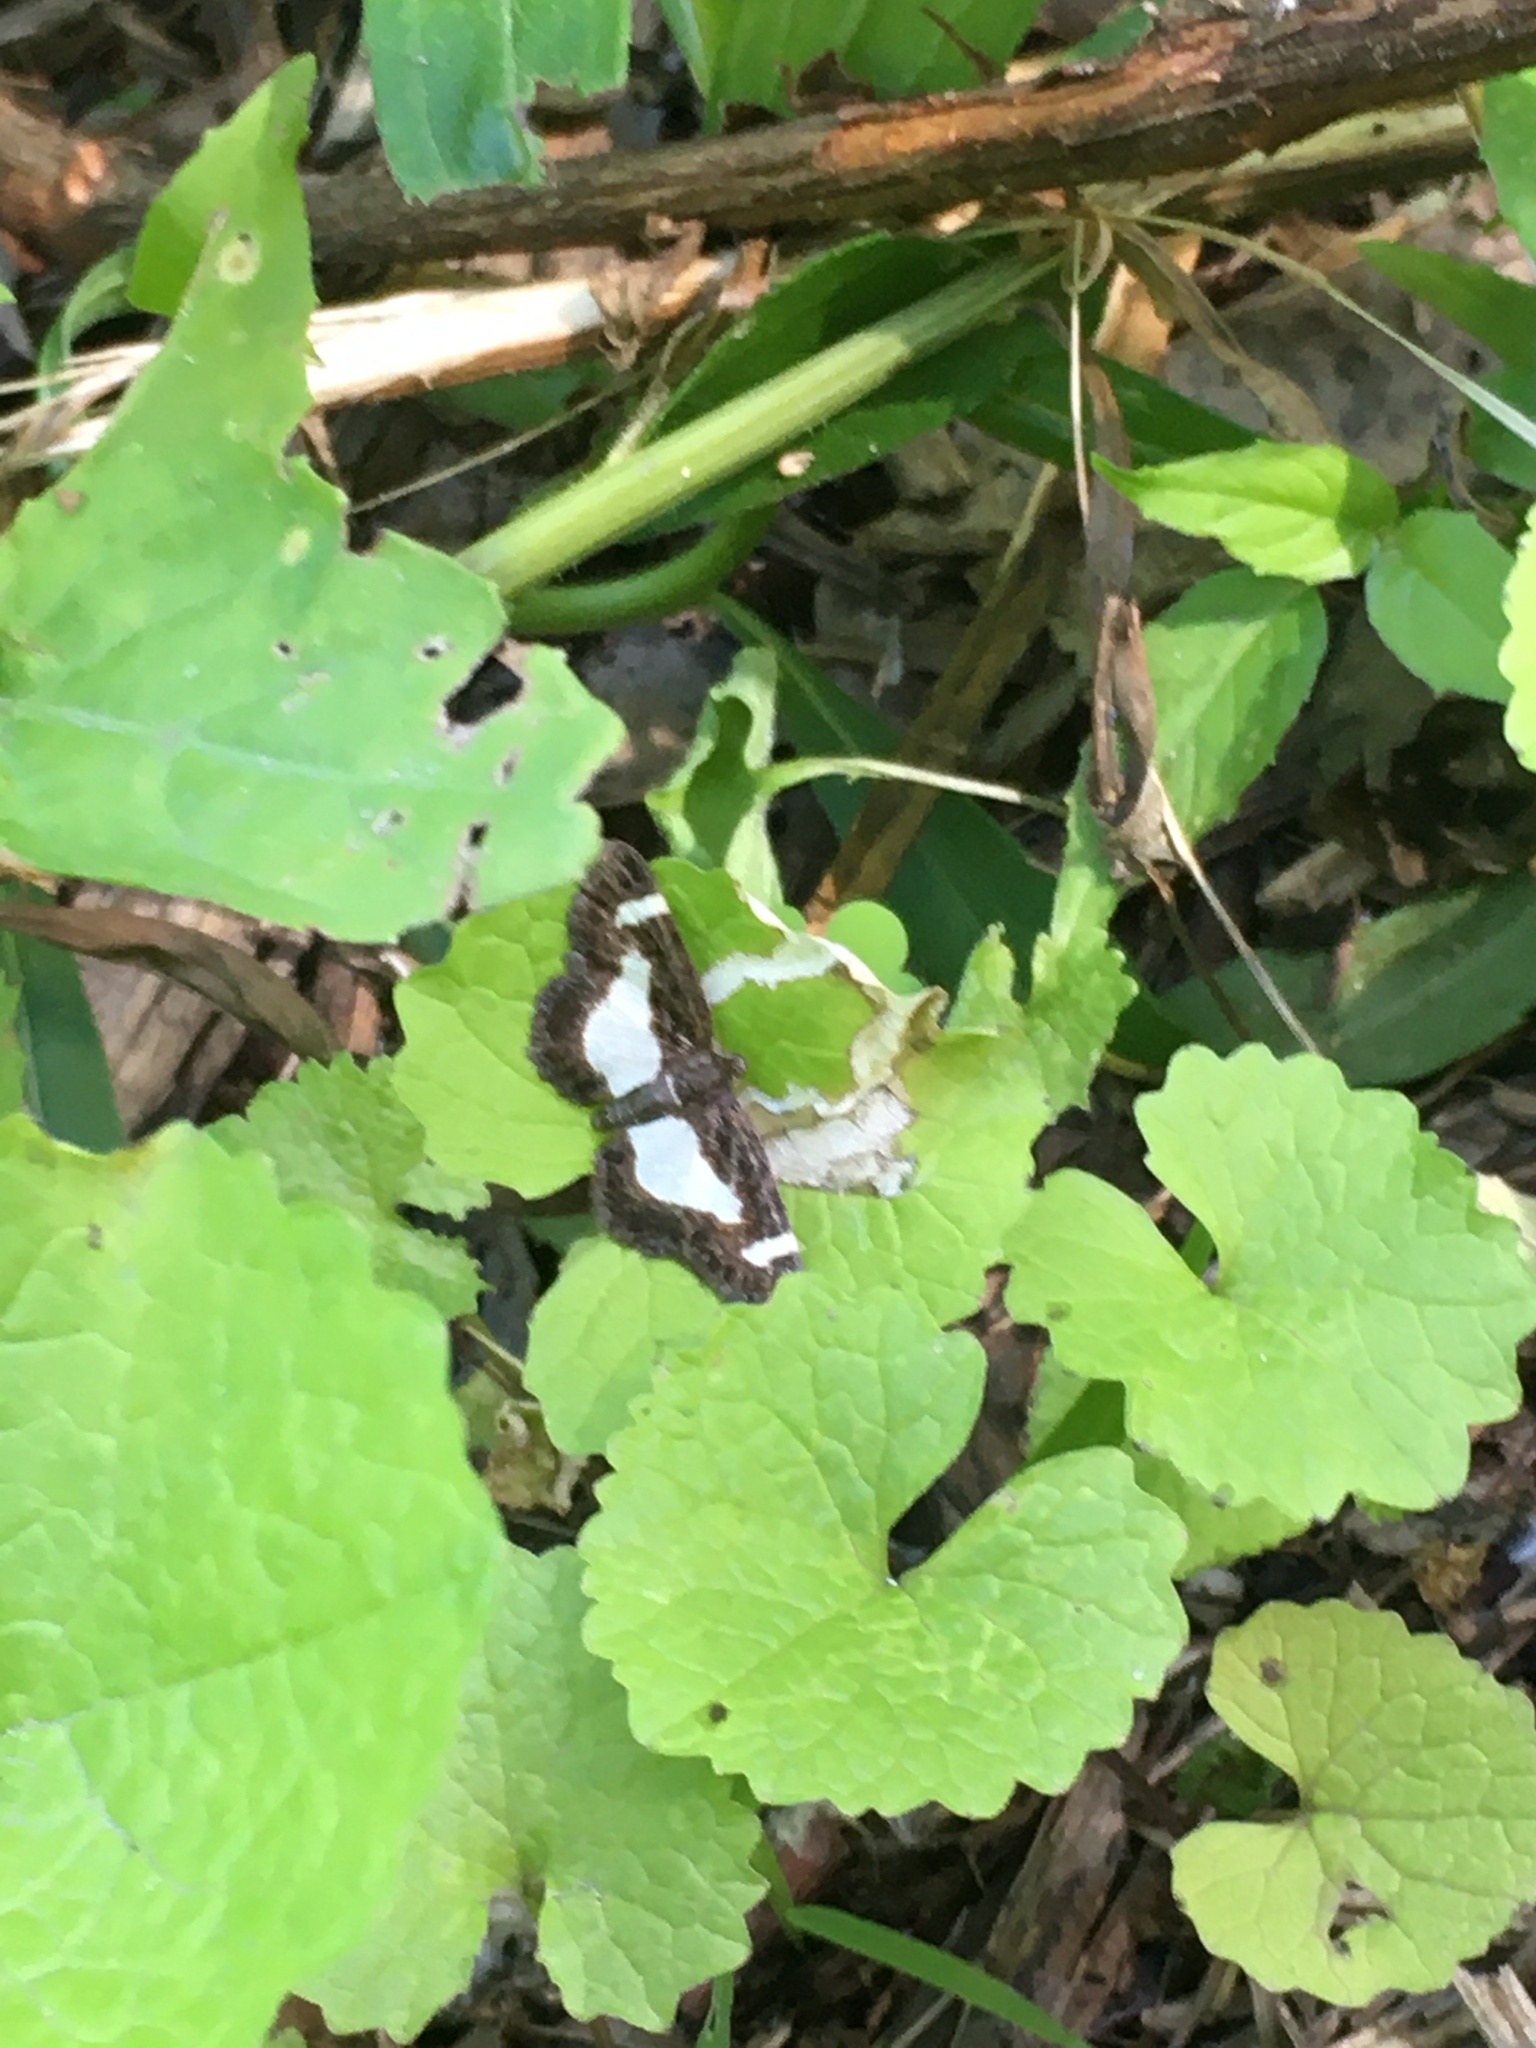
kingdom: Animalia
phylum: Arthropoda
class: Insecta
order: Lepidoptera
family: Geometridae
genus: Heliomata
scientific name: Heliomata cycladata
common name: Common spring moth
